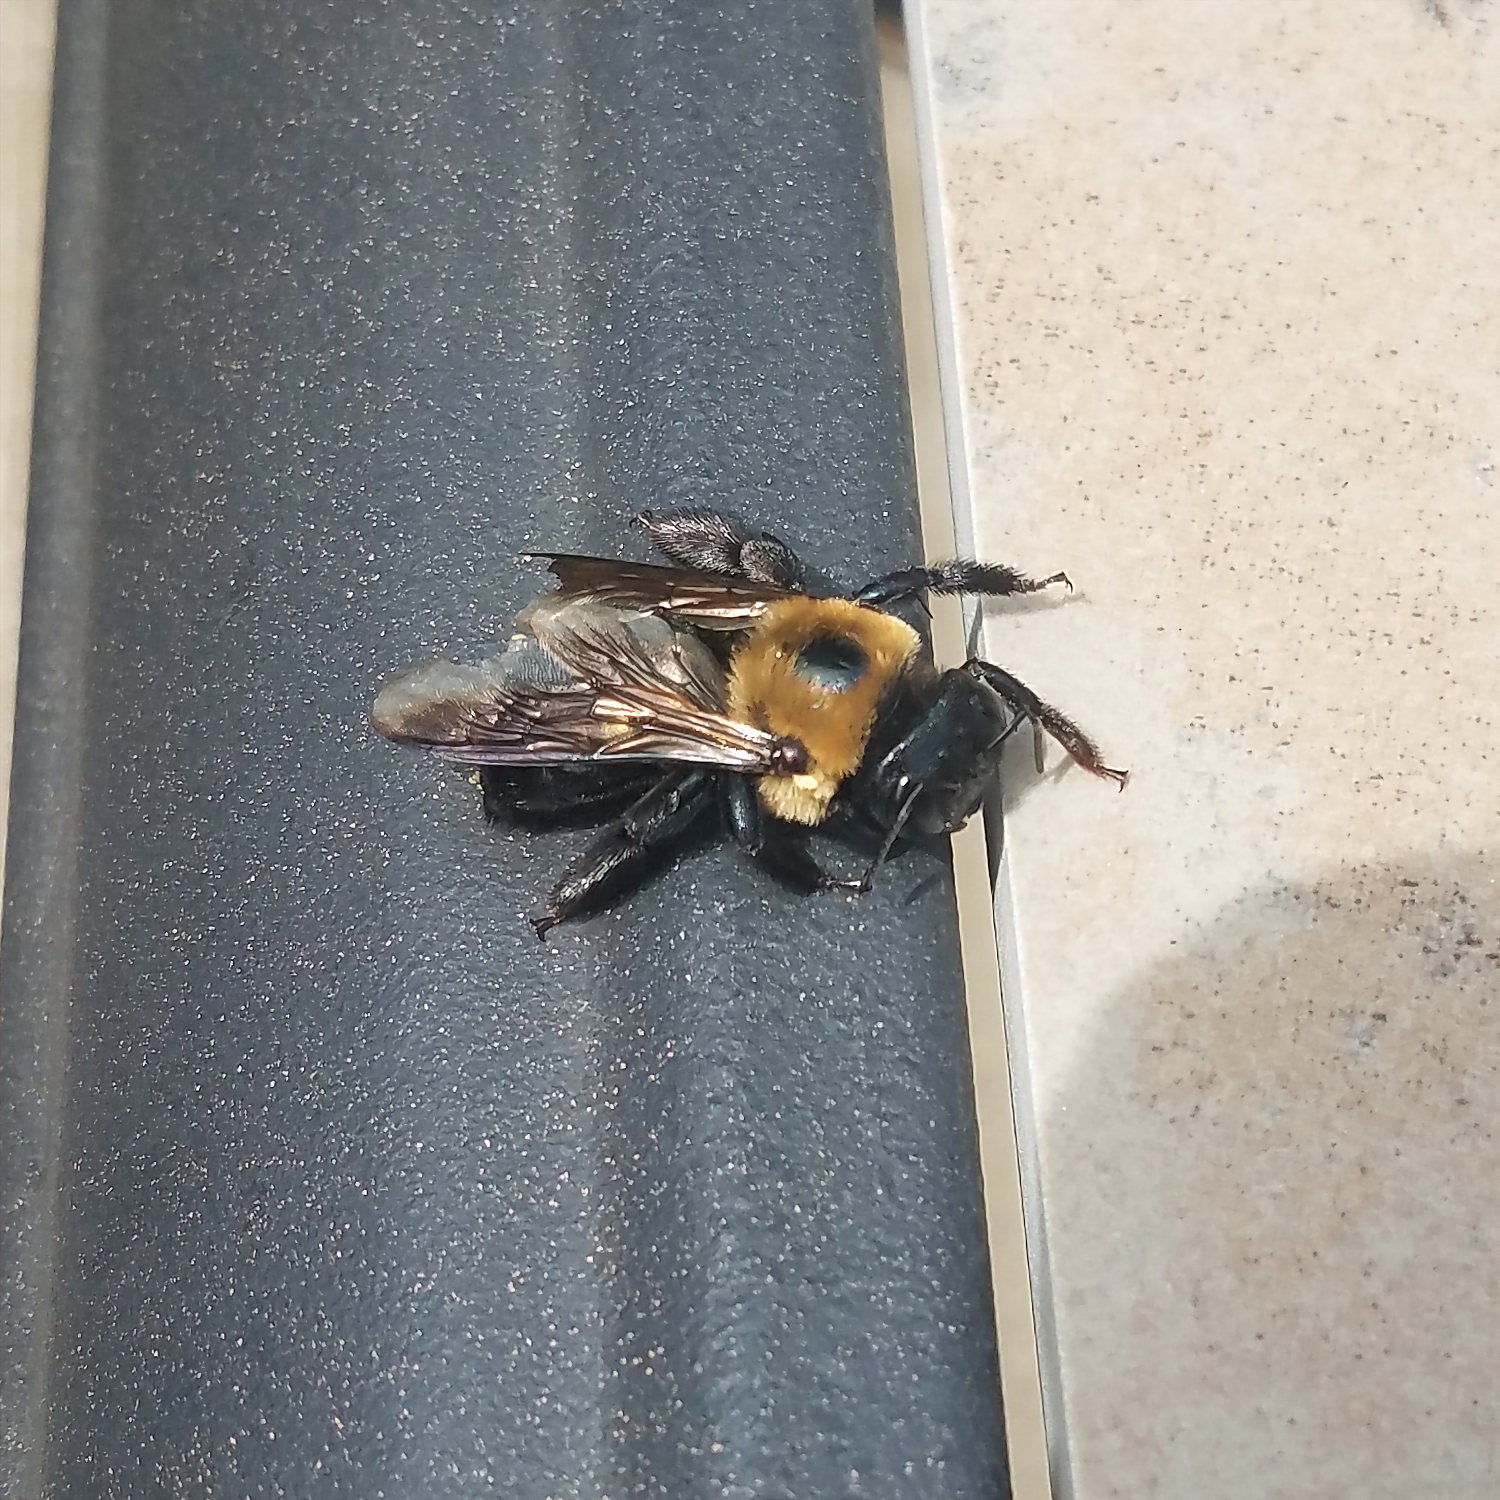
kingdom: Animalia
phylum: Arthropoda
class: Insecta
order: Hymenoptera
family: Apidae
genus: Xylocopa
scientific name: Xylocopa virginica
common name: Carpenter bee
